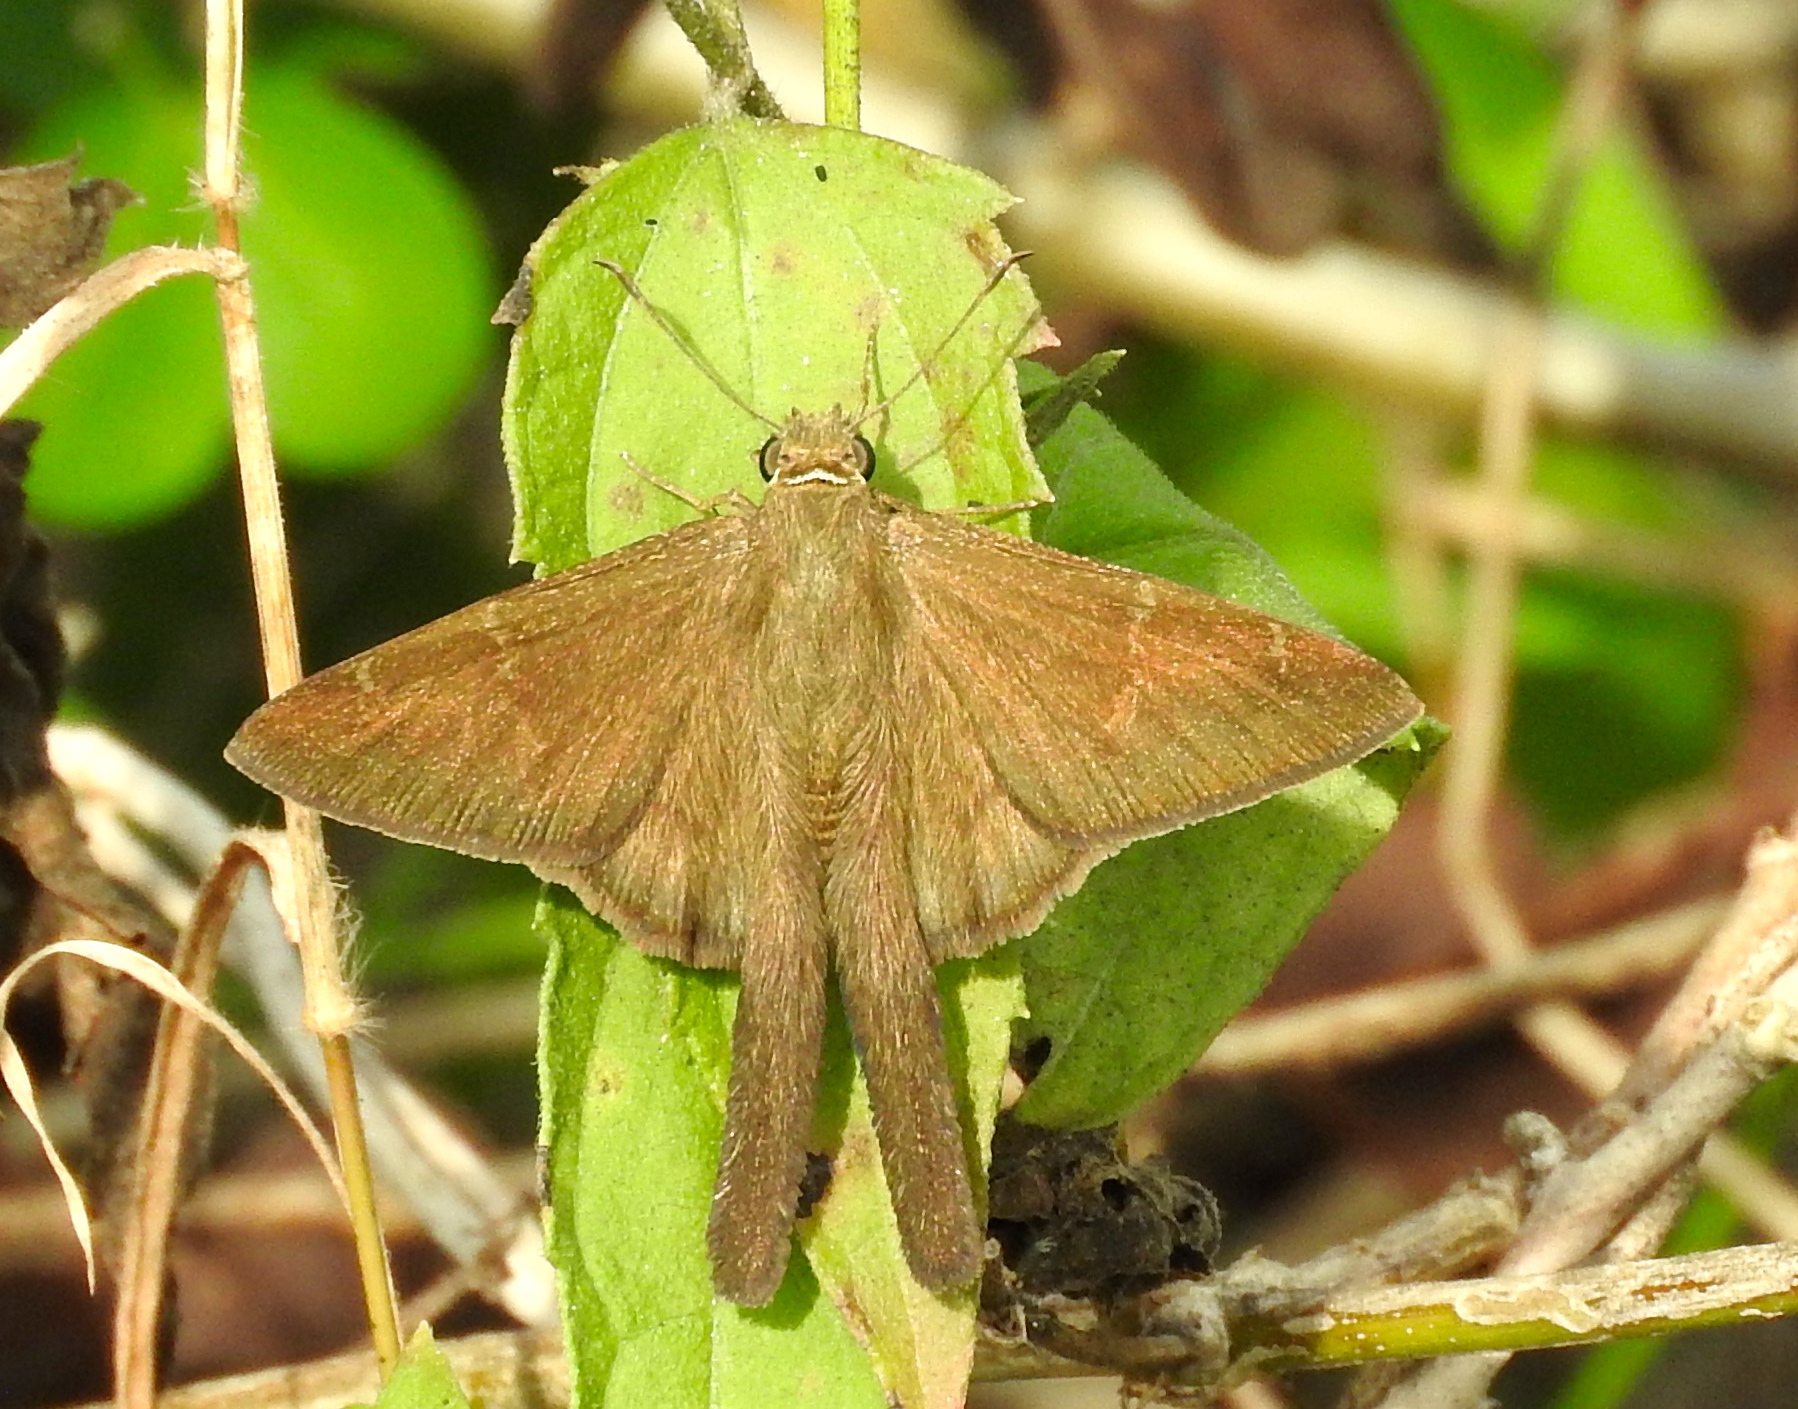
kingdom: Animalia
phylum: Arthropoda
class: Insecta
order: Lepidoptera
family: Hesperiidae
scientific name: Hesperiidae
